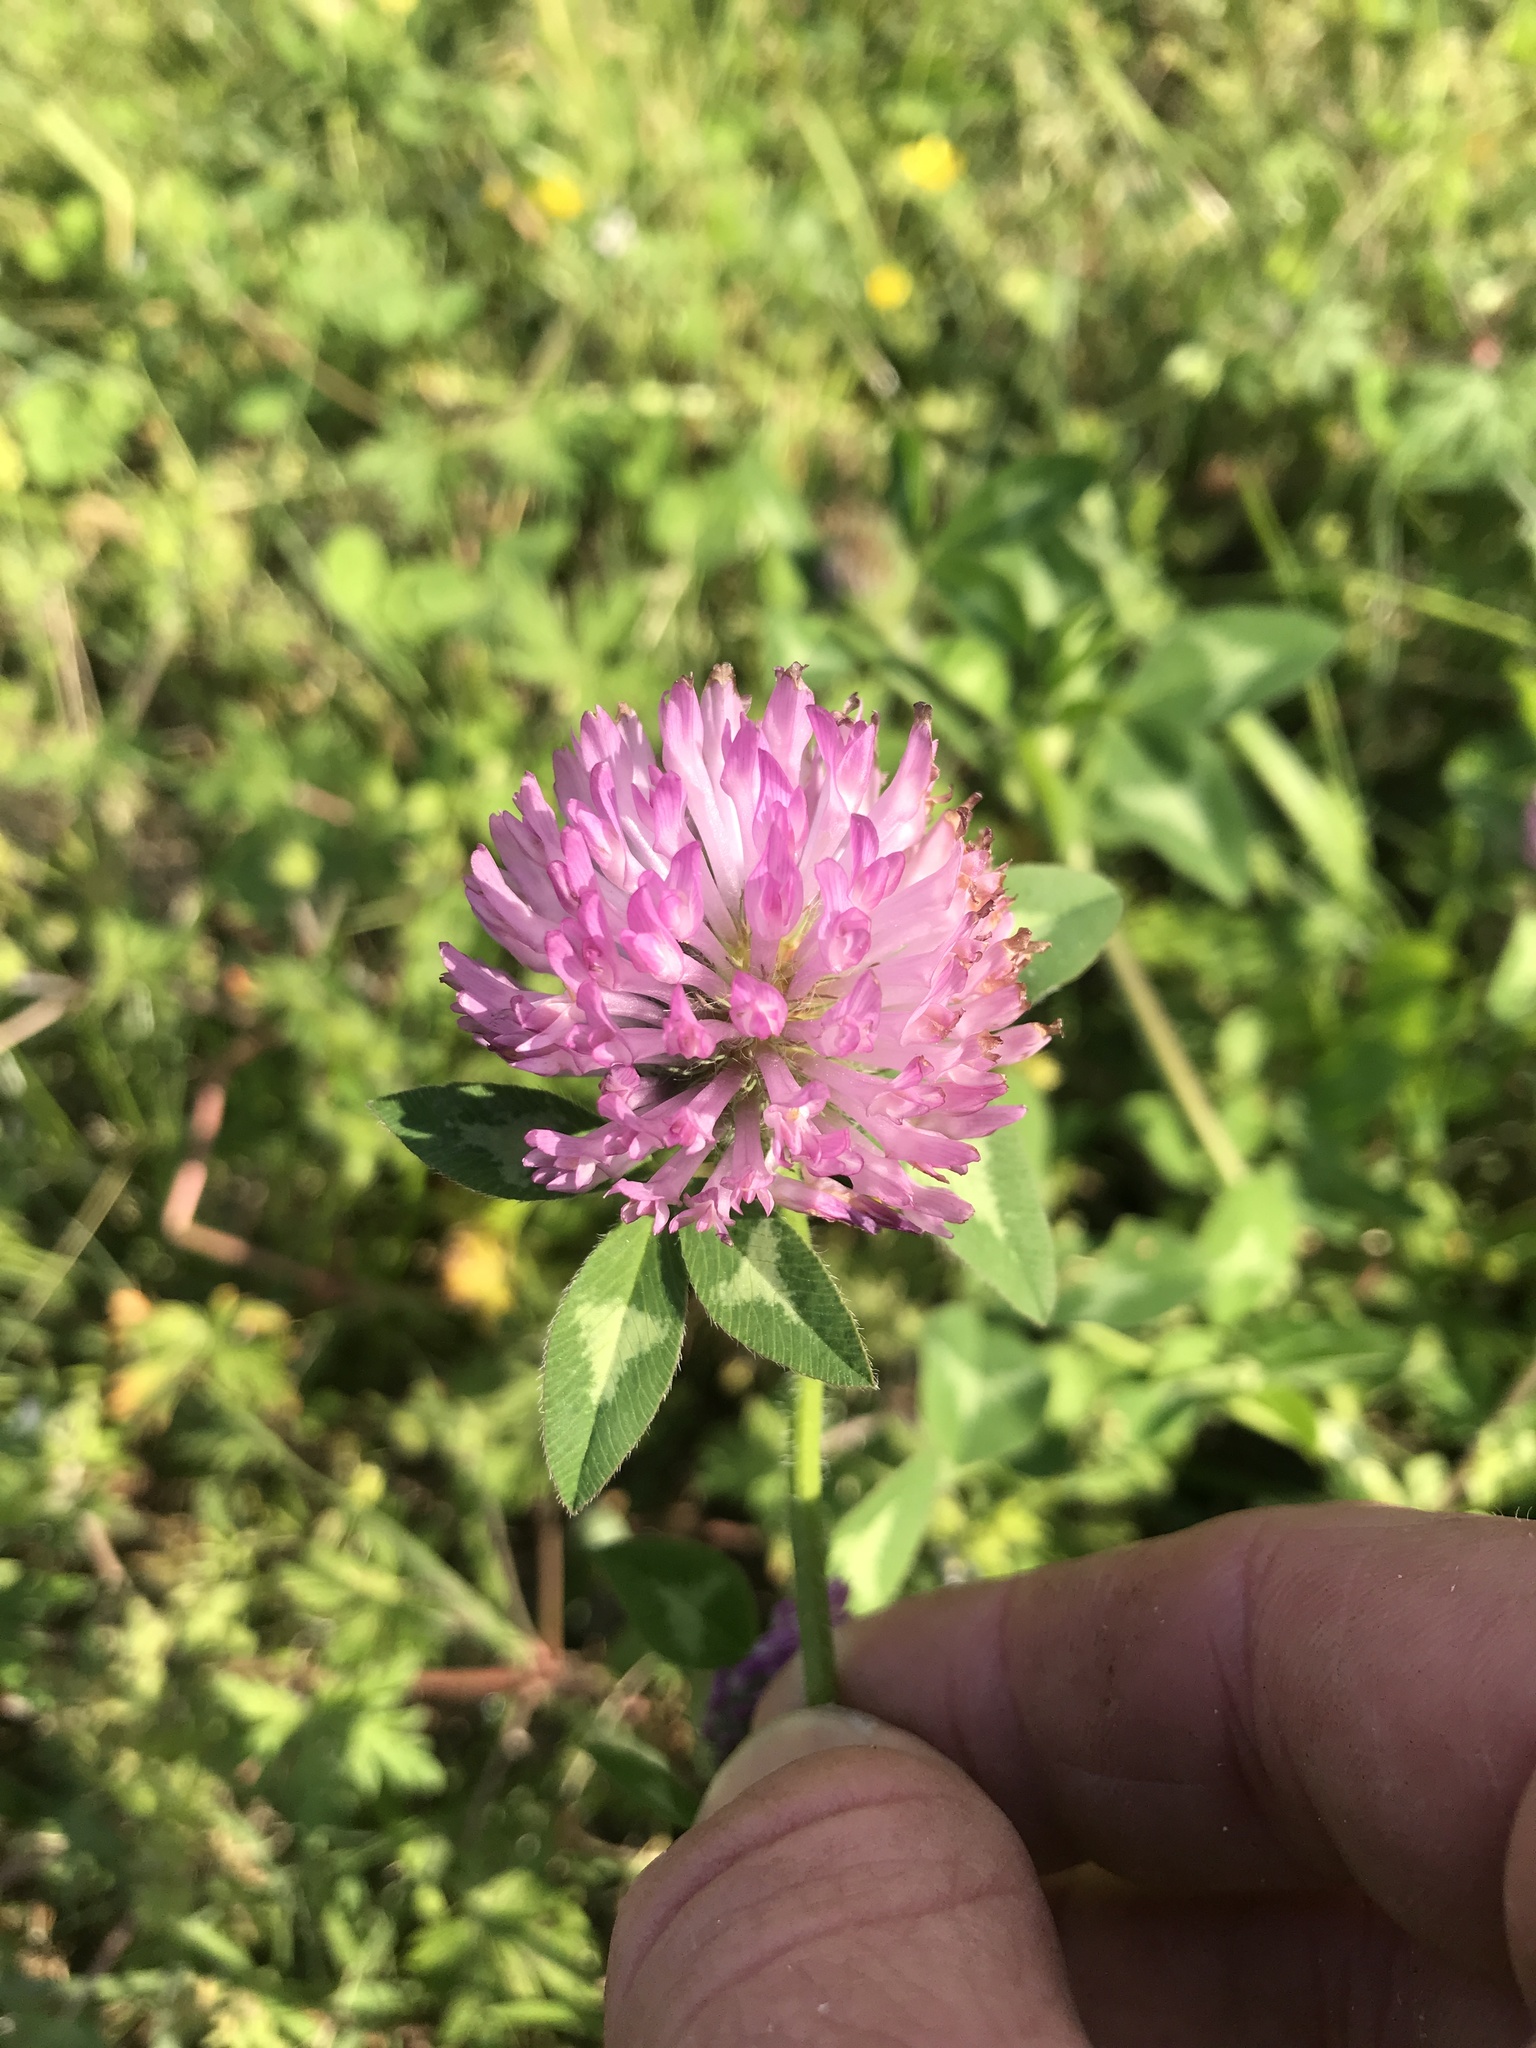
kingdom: Plantae
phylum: Tracheophyta
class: Magnoliopsida
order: Fabales
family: Fabaceae
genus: Trifolium
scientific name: Trifolium pratense
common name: Red clover
